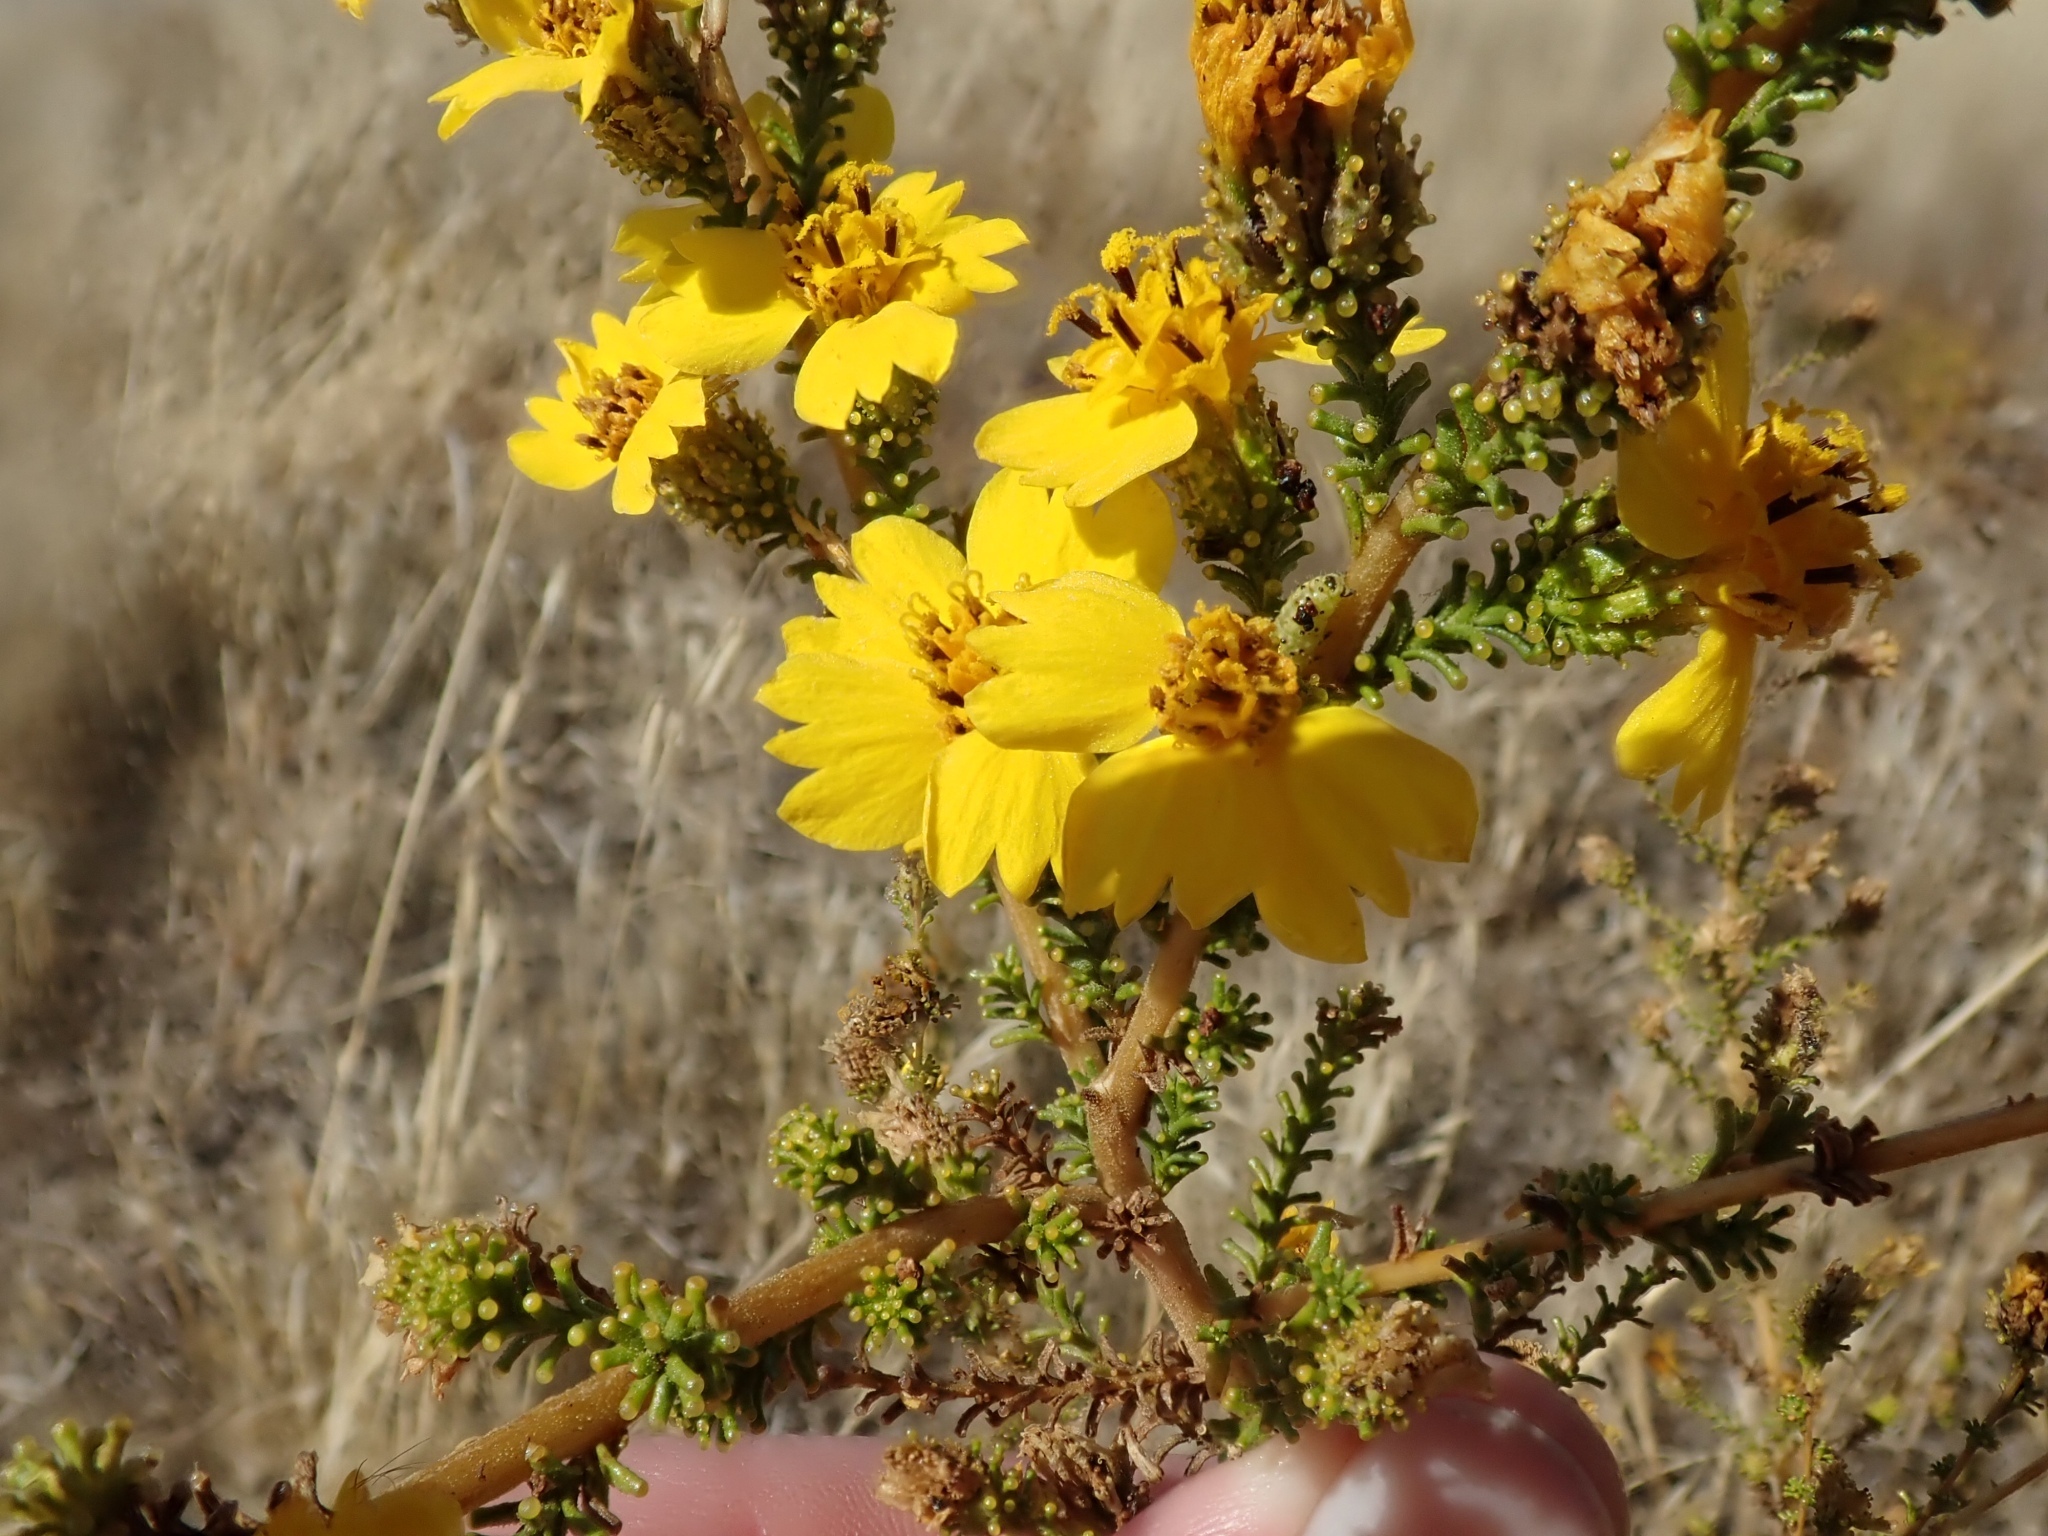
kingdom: Plantae
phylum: Tracheophyta
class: Magnoliopsida
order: Asterales
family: Asteraceae
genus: Holocarpha
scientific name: Holocarpha virgata
